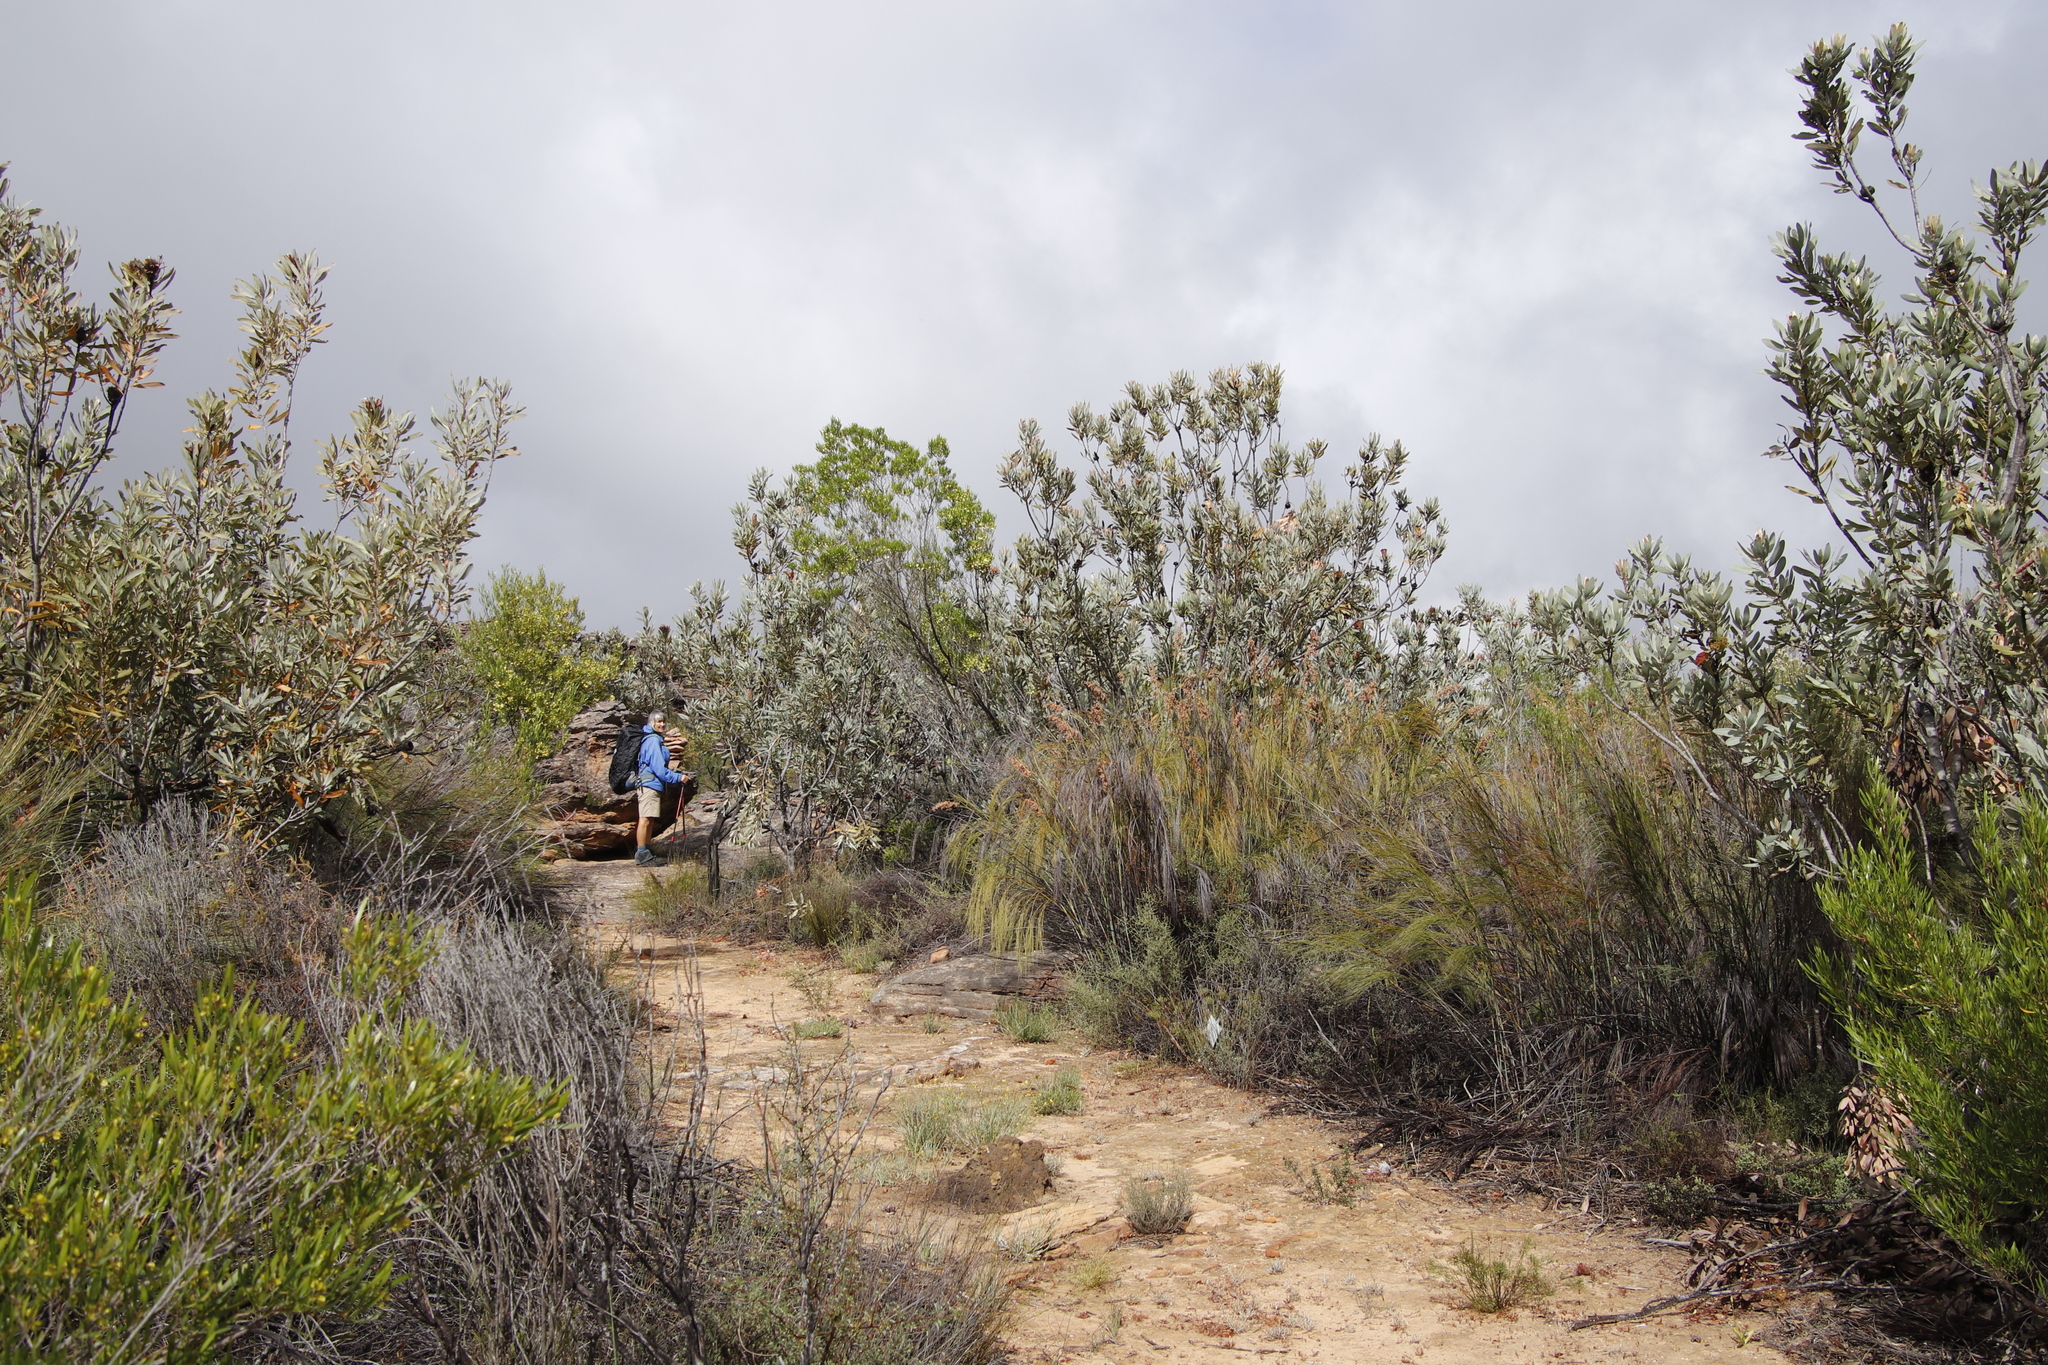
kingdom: Plantae
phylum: Tracheophyta
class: Magnoliopsida
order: Proteales
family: Proteaceae
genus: Protea
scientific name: Protea laurifolia
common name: Grey-leaf sugarbsh
